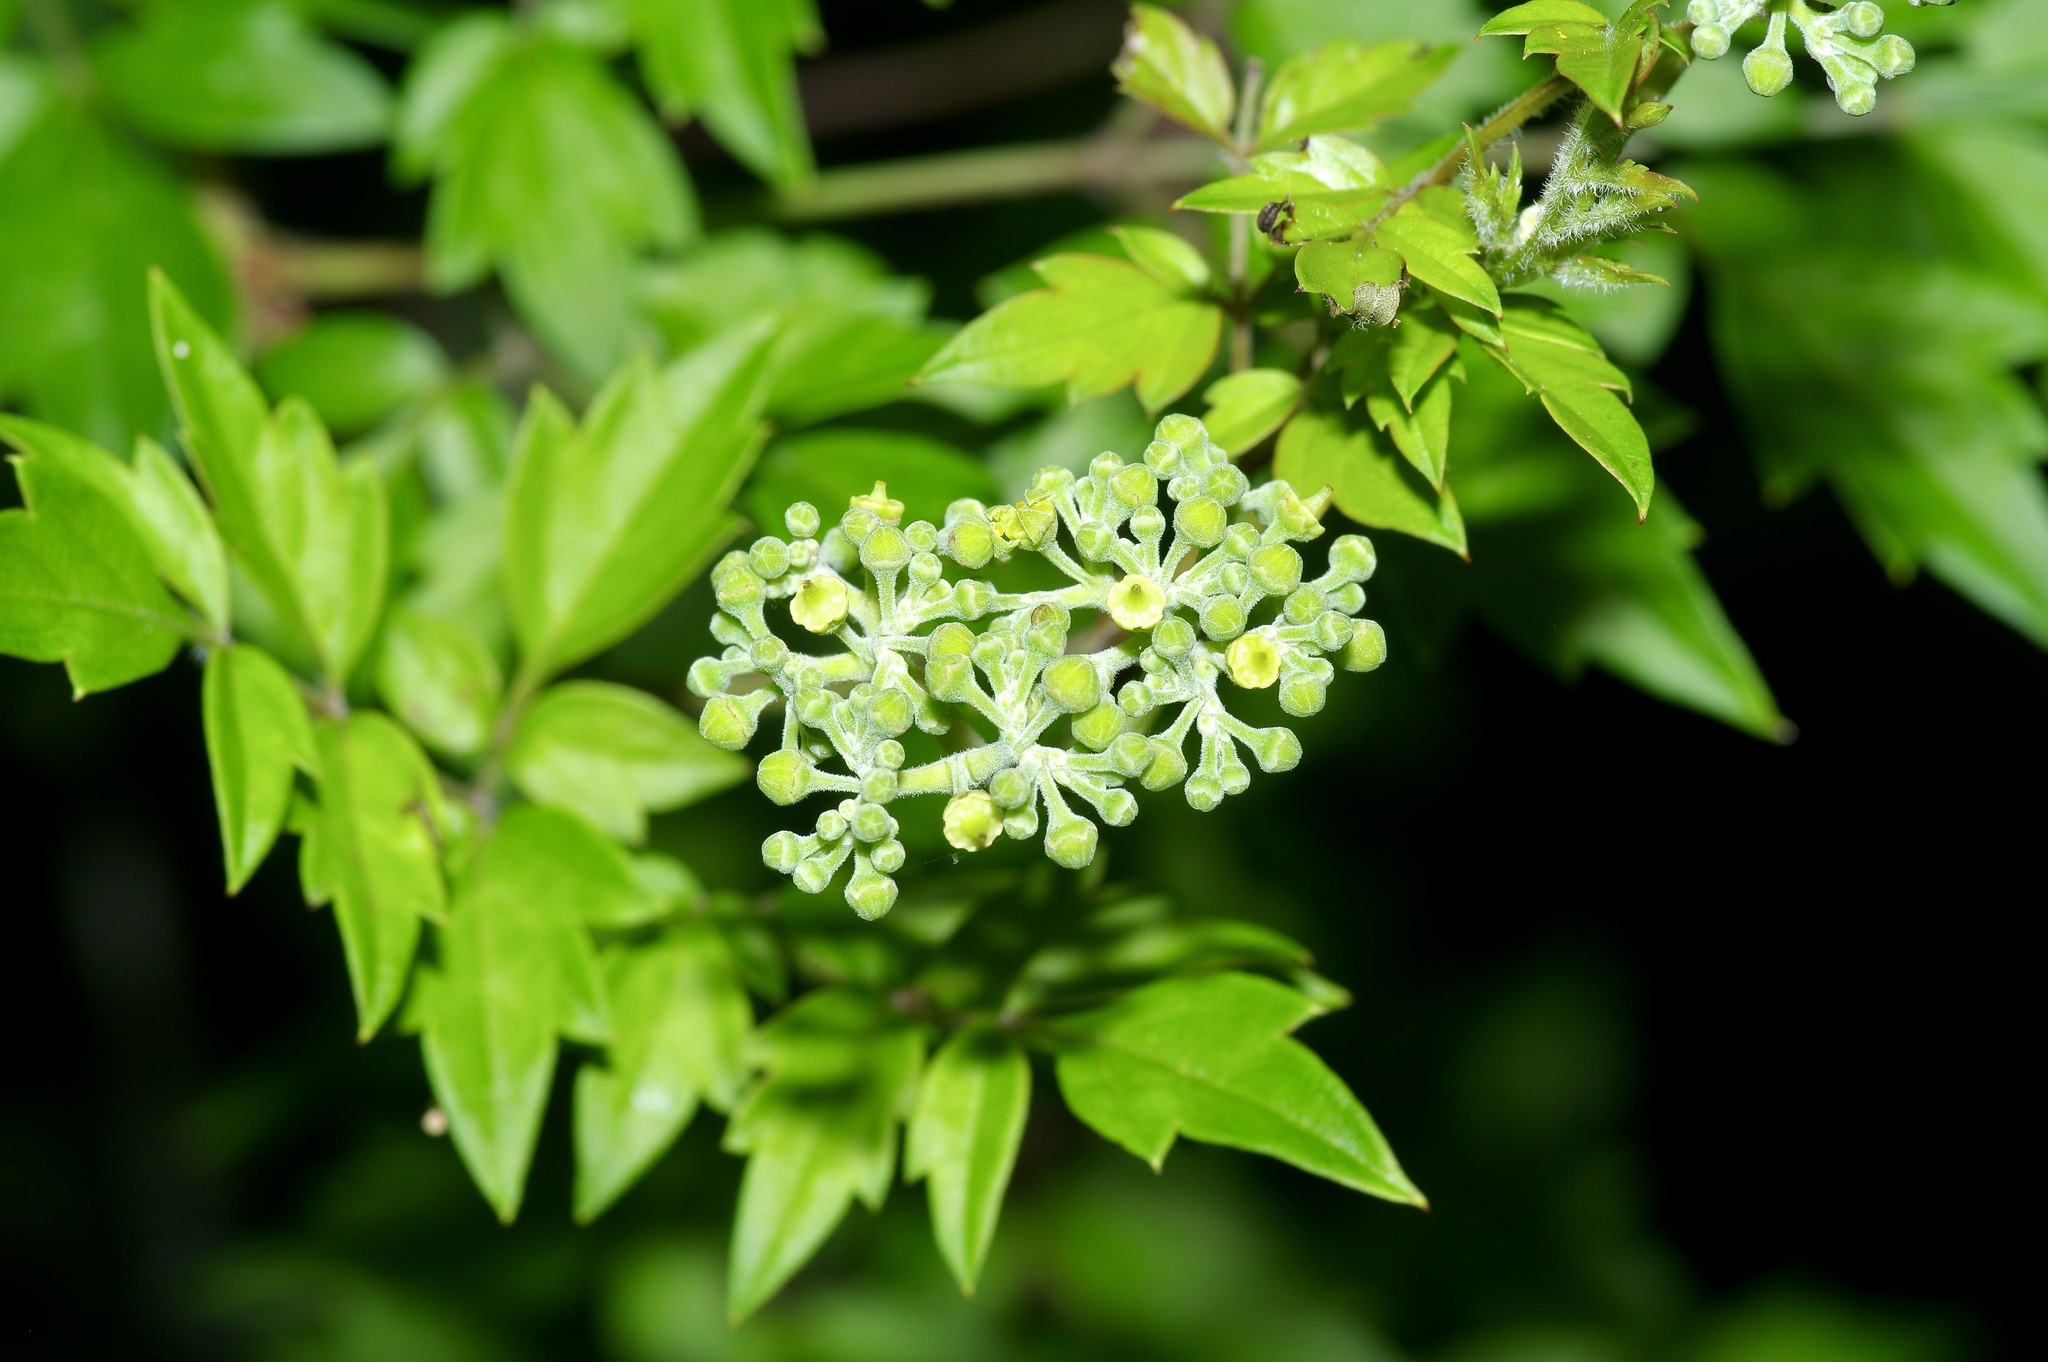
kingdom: Plantae
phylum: Tracheophyta
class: Magnoliopsida
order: Vitales
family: Vitaceae
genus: Nekemias
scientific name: Nekemias arborea
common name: Peppervine
